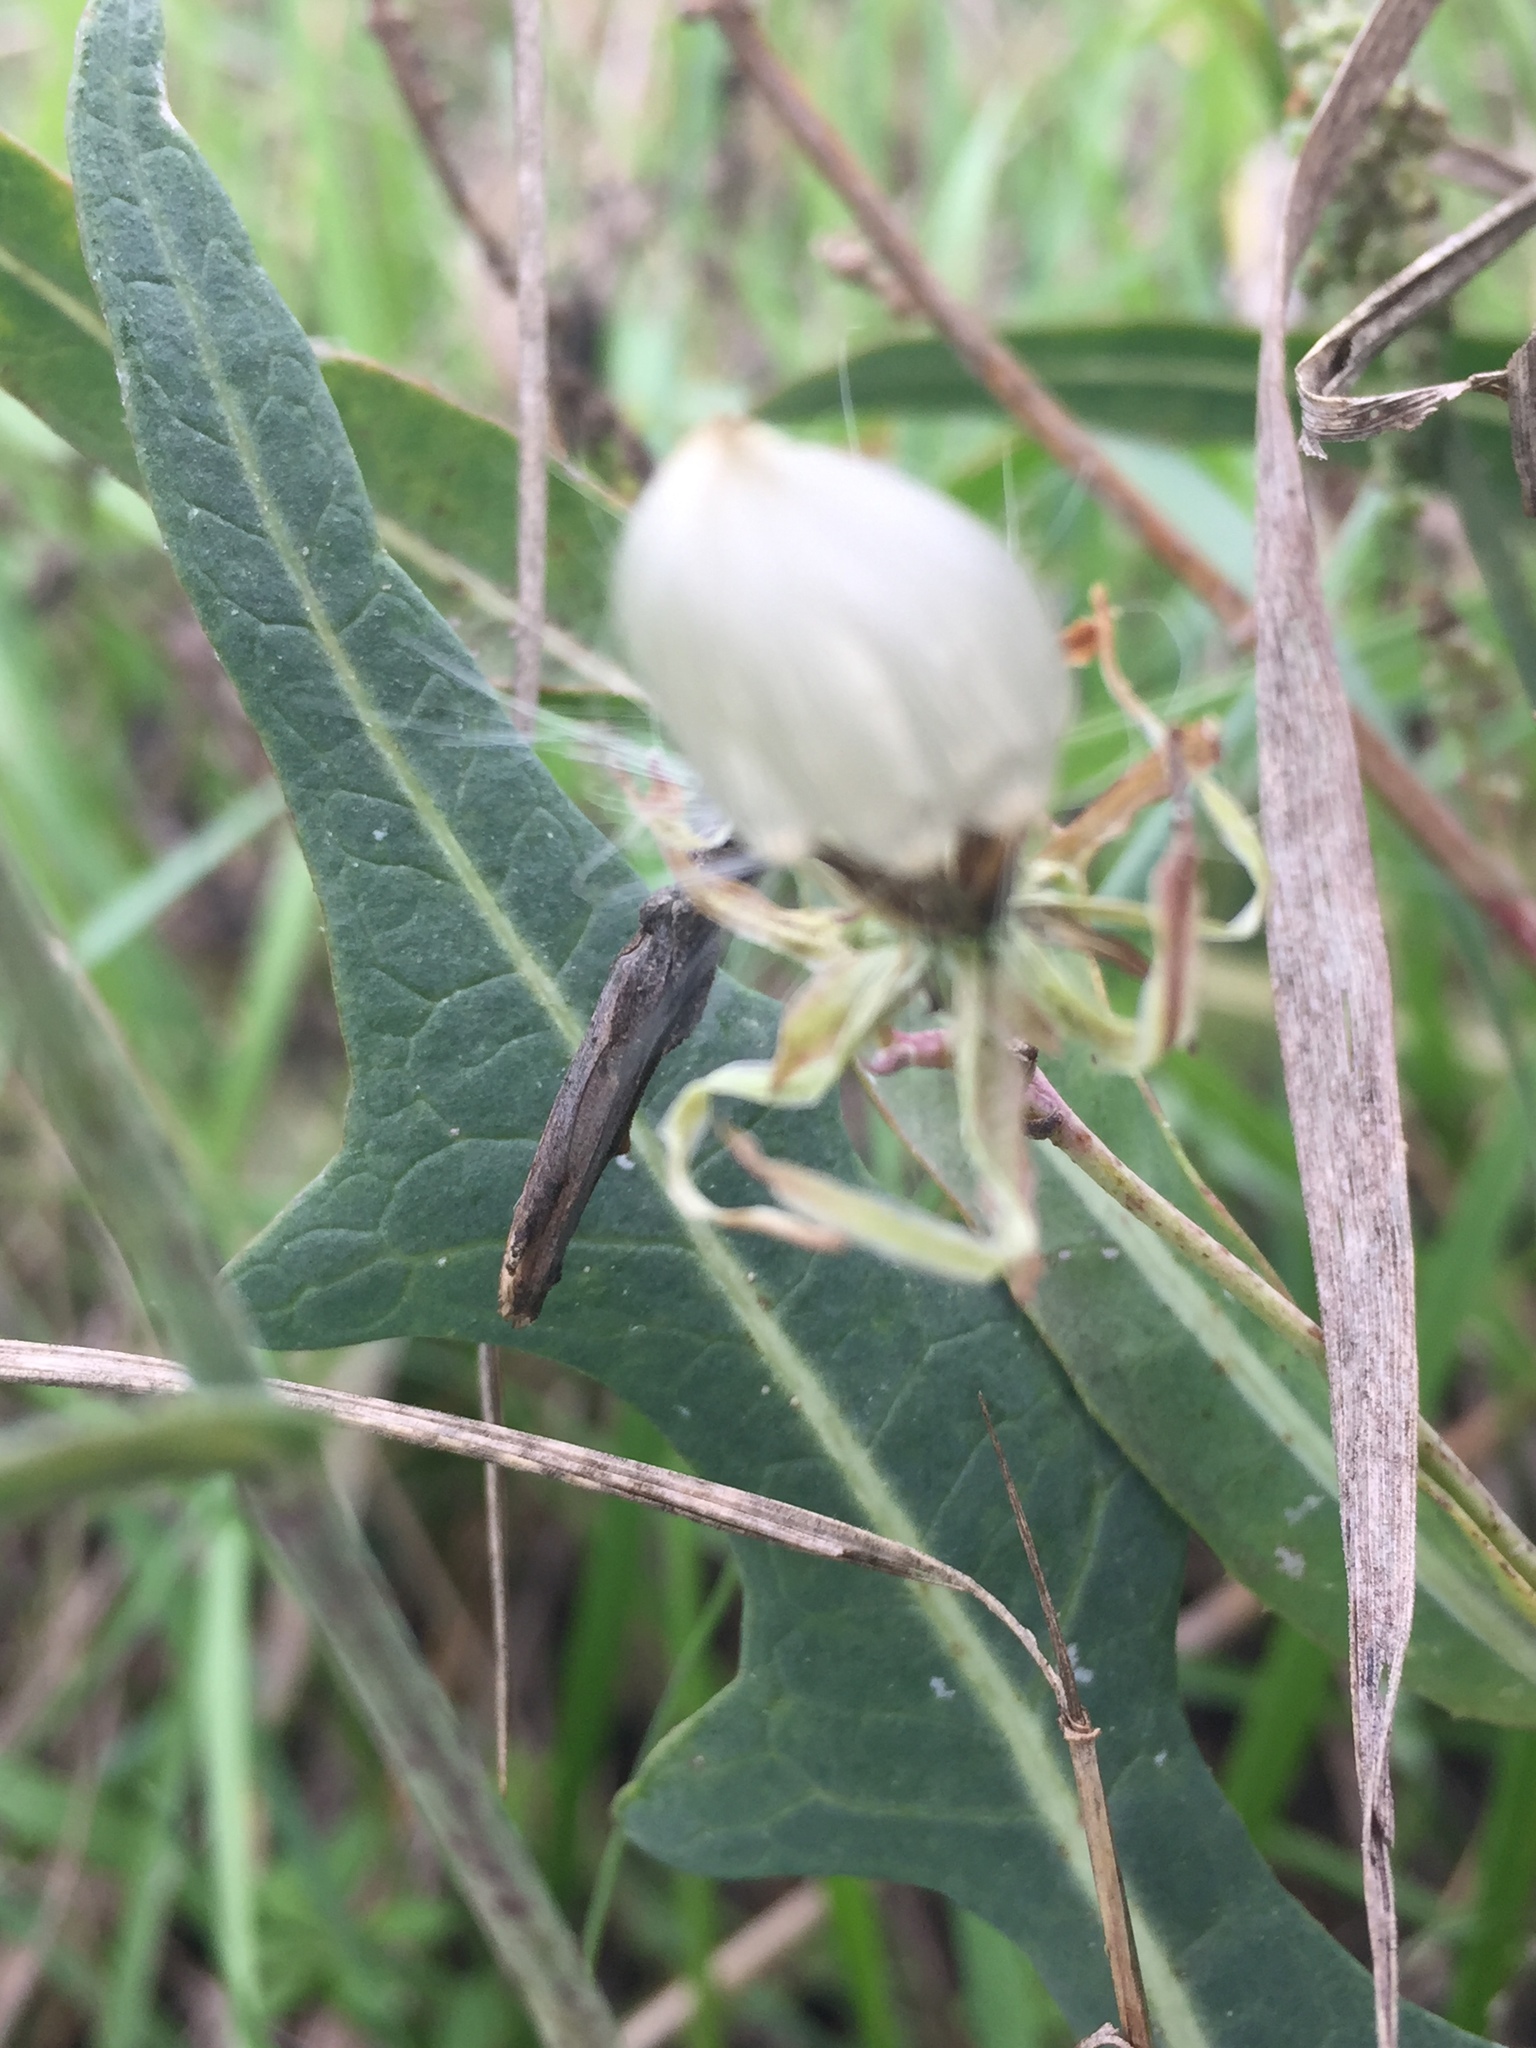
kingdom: Plantae
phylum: Tracheophyta
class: Magnoliopsida
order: Asterales
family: Asteraceae
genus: Lactuca
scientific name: Lactuca tatarica
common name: Blue lettuce
